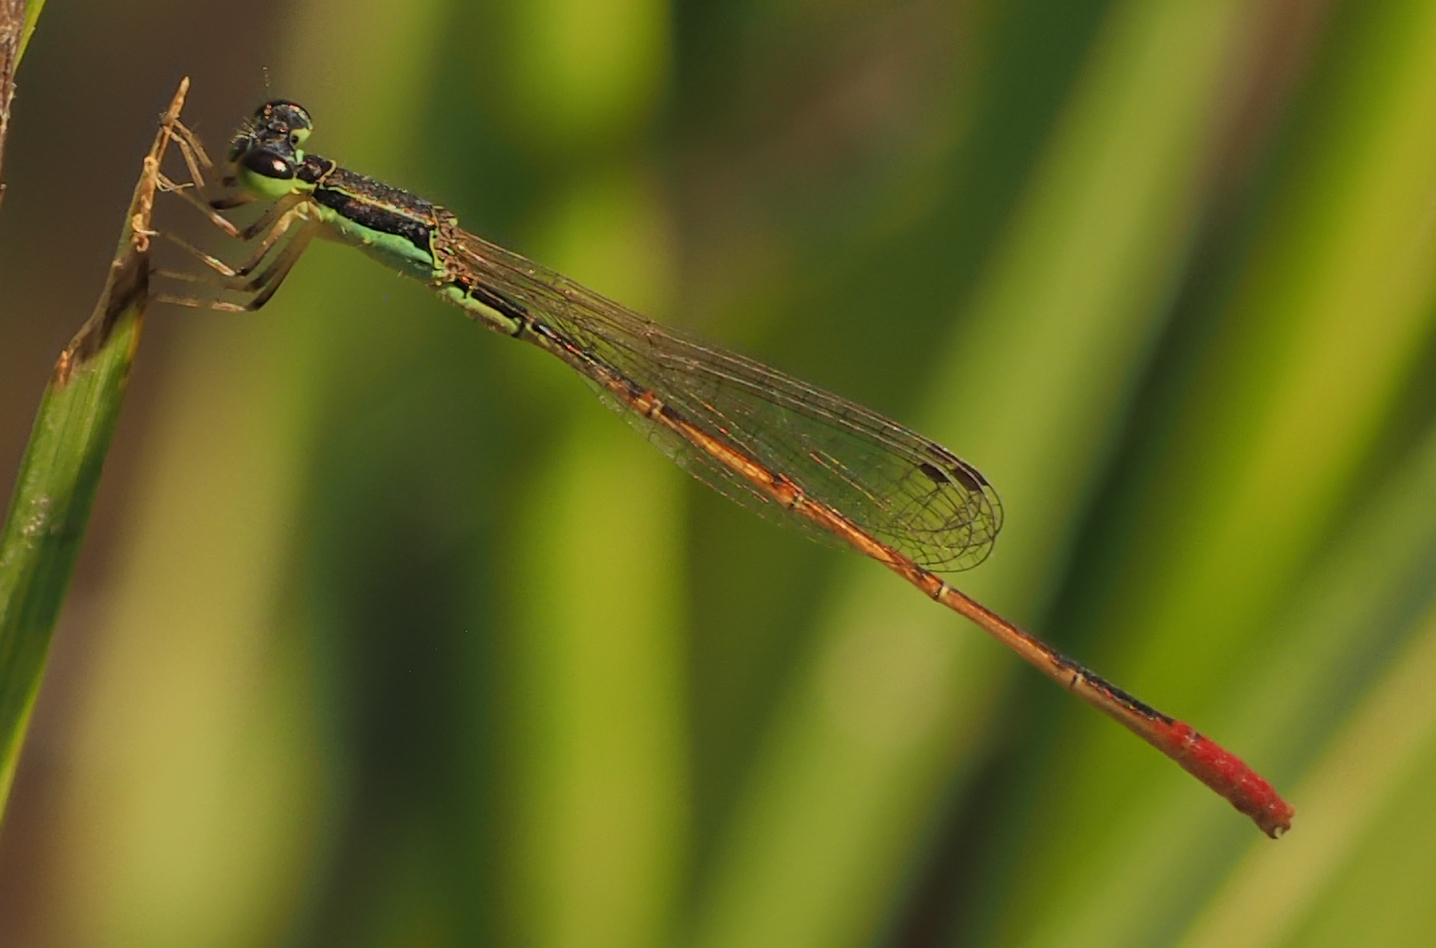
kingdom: Animalia
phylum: Arthropoda
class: Insecta
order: Odonata
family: Coenagrionidae
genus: Agriocnemis
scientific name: Agriocnemis exilis
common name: Little wisp
